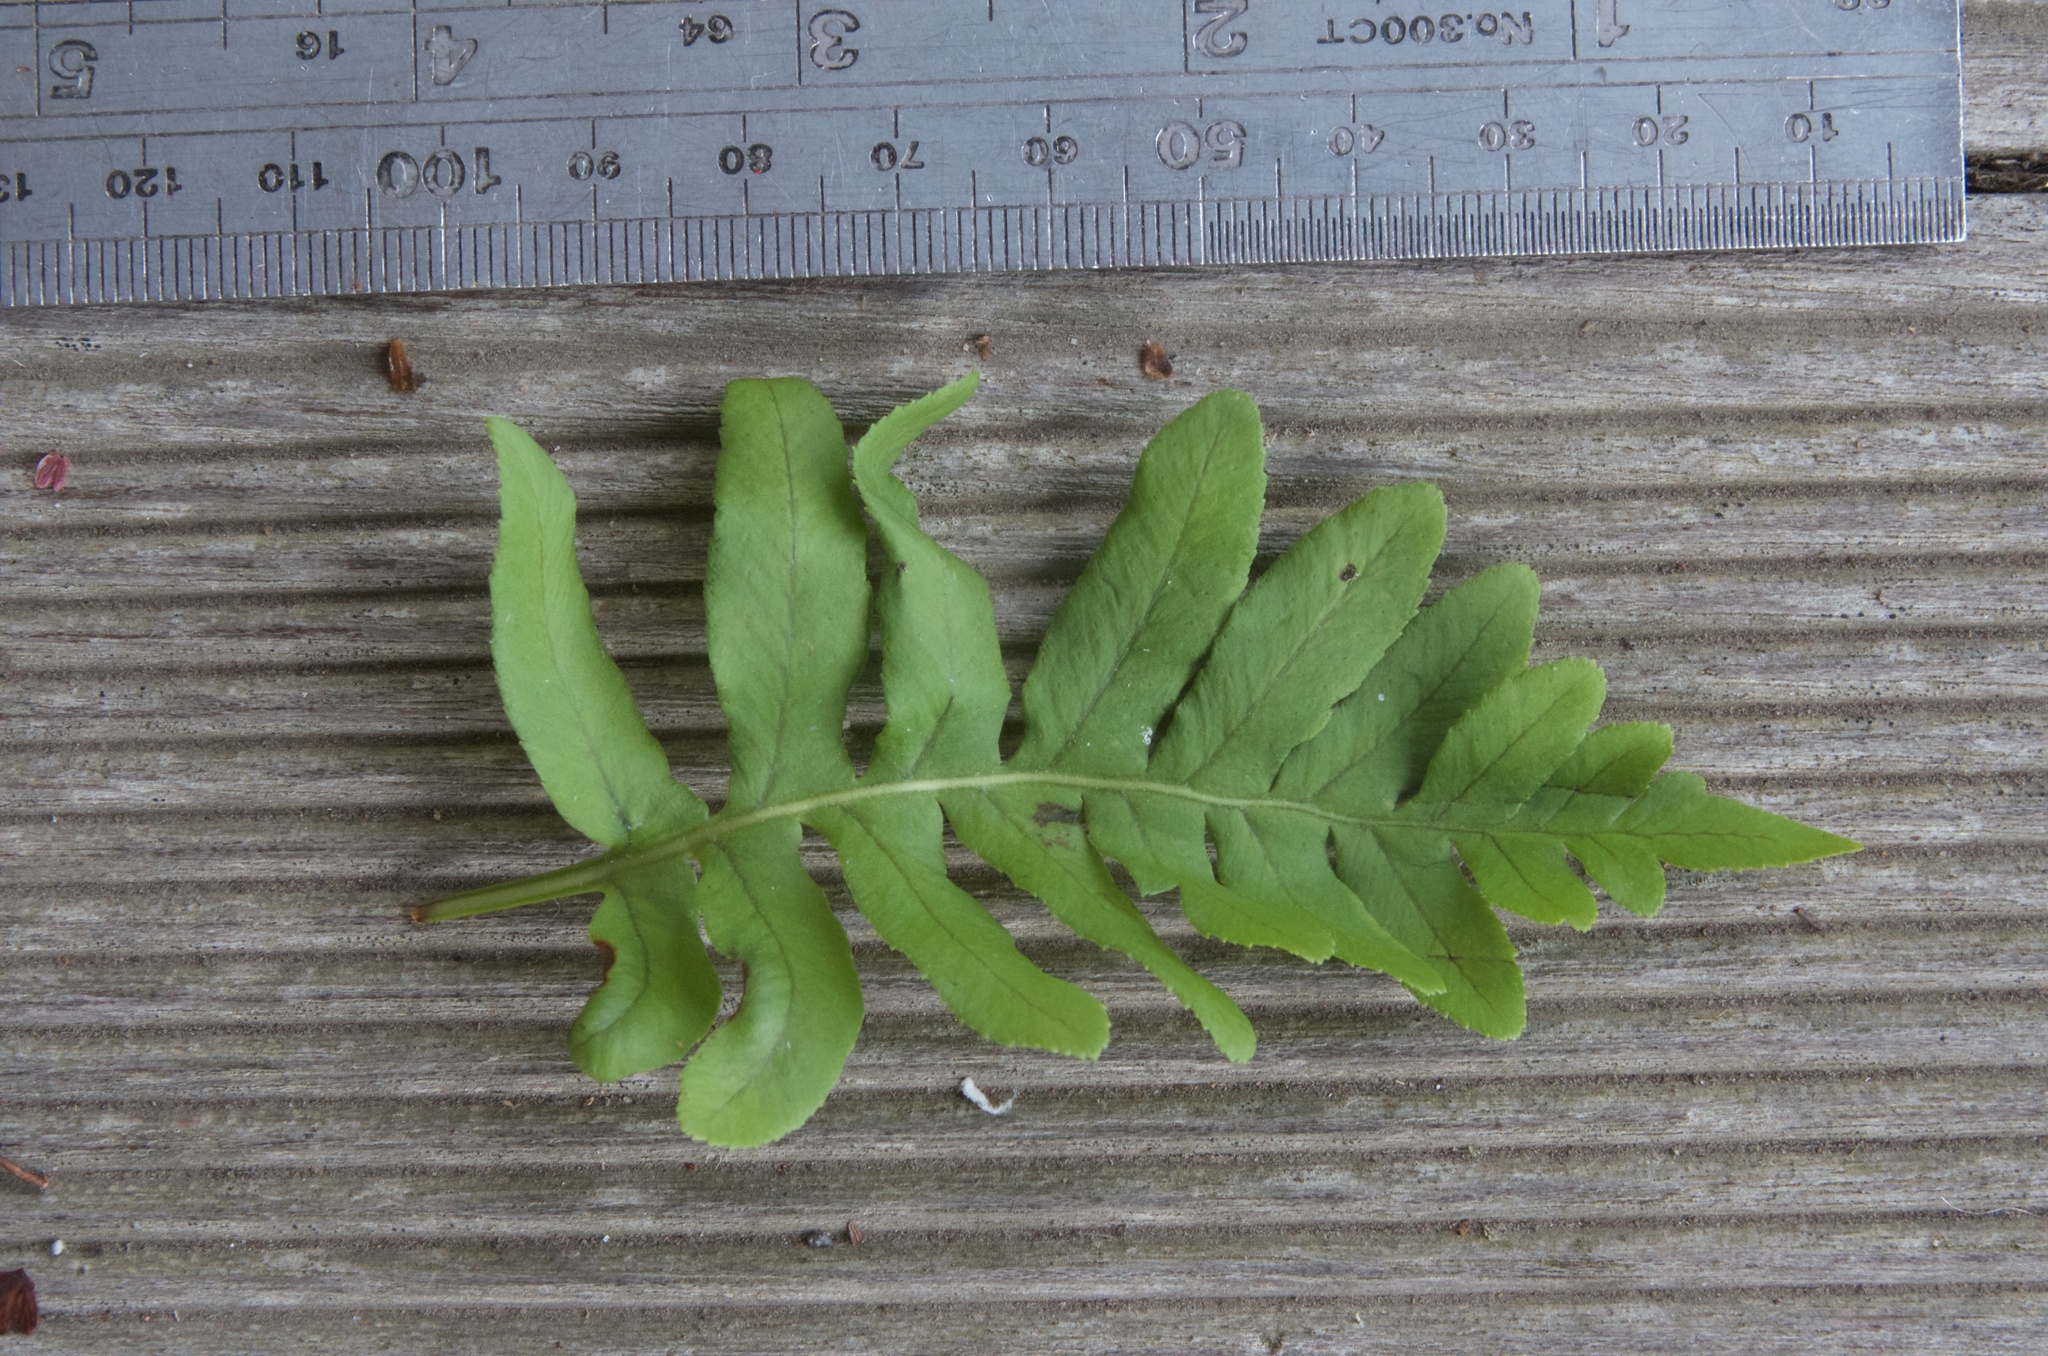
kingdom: Plantae
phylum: Tracheophyta
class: Polypodiopsida
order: Polypodiales
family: Polypodiaceae
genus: Polypodium
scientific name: Polypodium vulgare
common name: Common polypody
